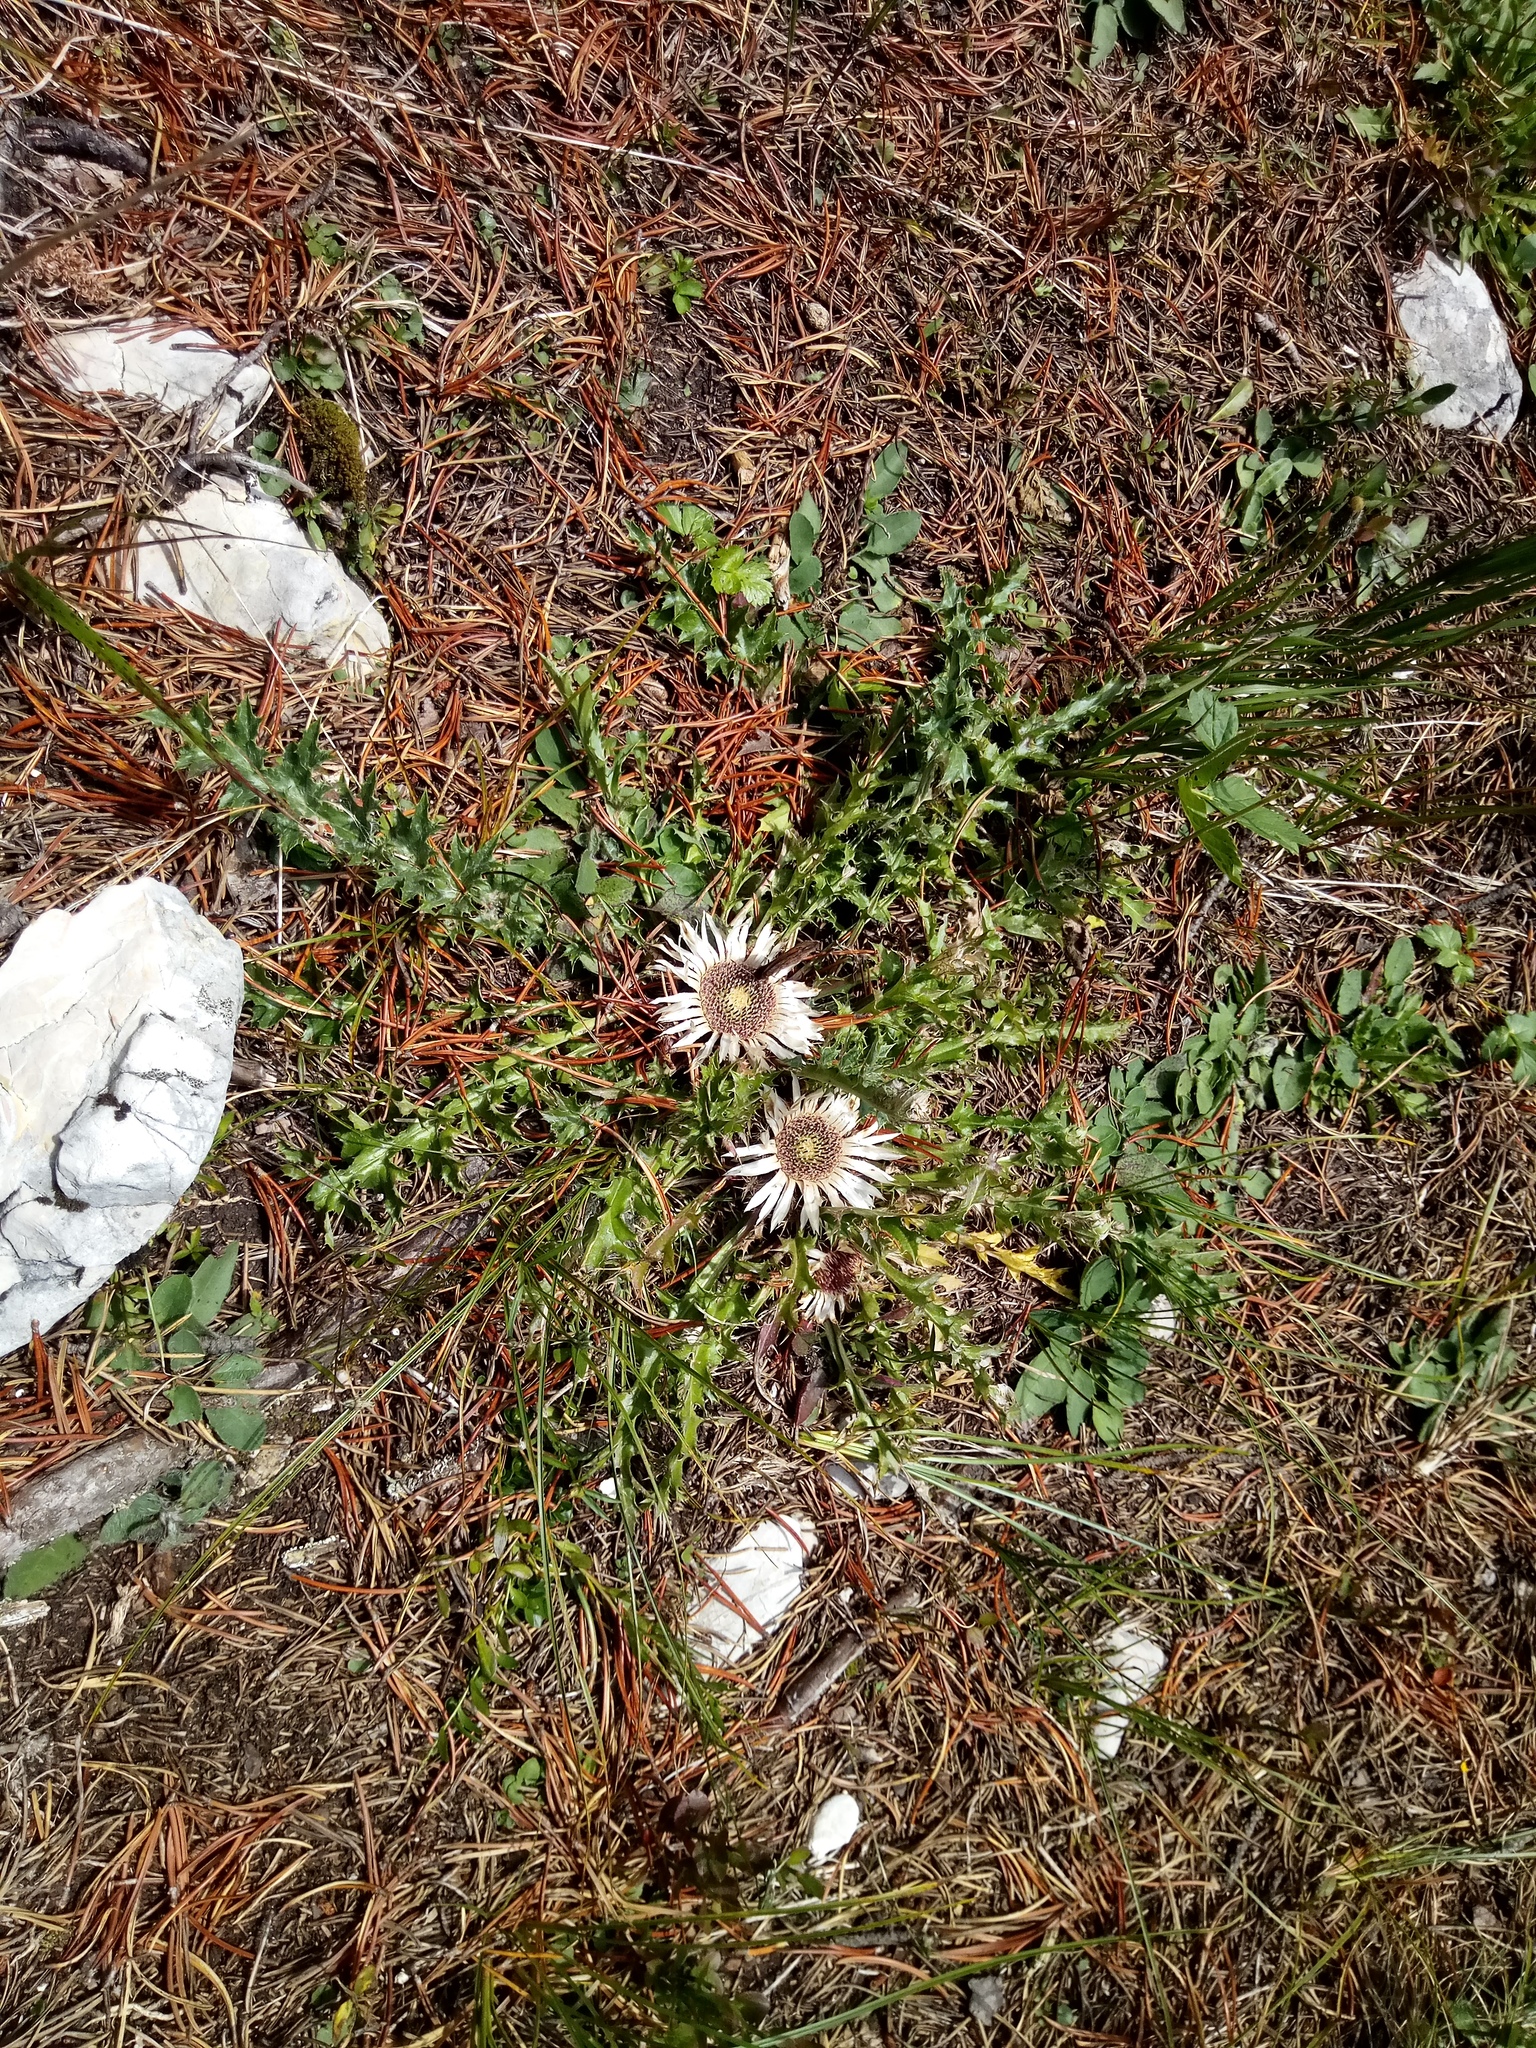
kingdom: Plantae
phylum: Tracheophyta
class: Magnoliopsida
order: Asterales
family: Asteraceae
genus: Carlina
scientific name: Carlina acaulis
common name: Stemless carline thistle
